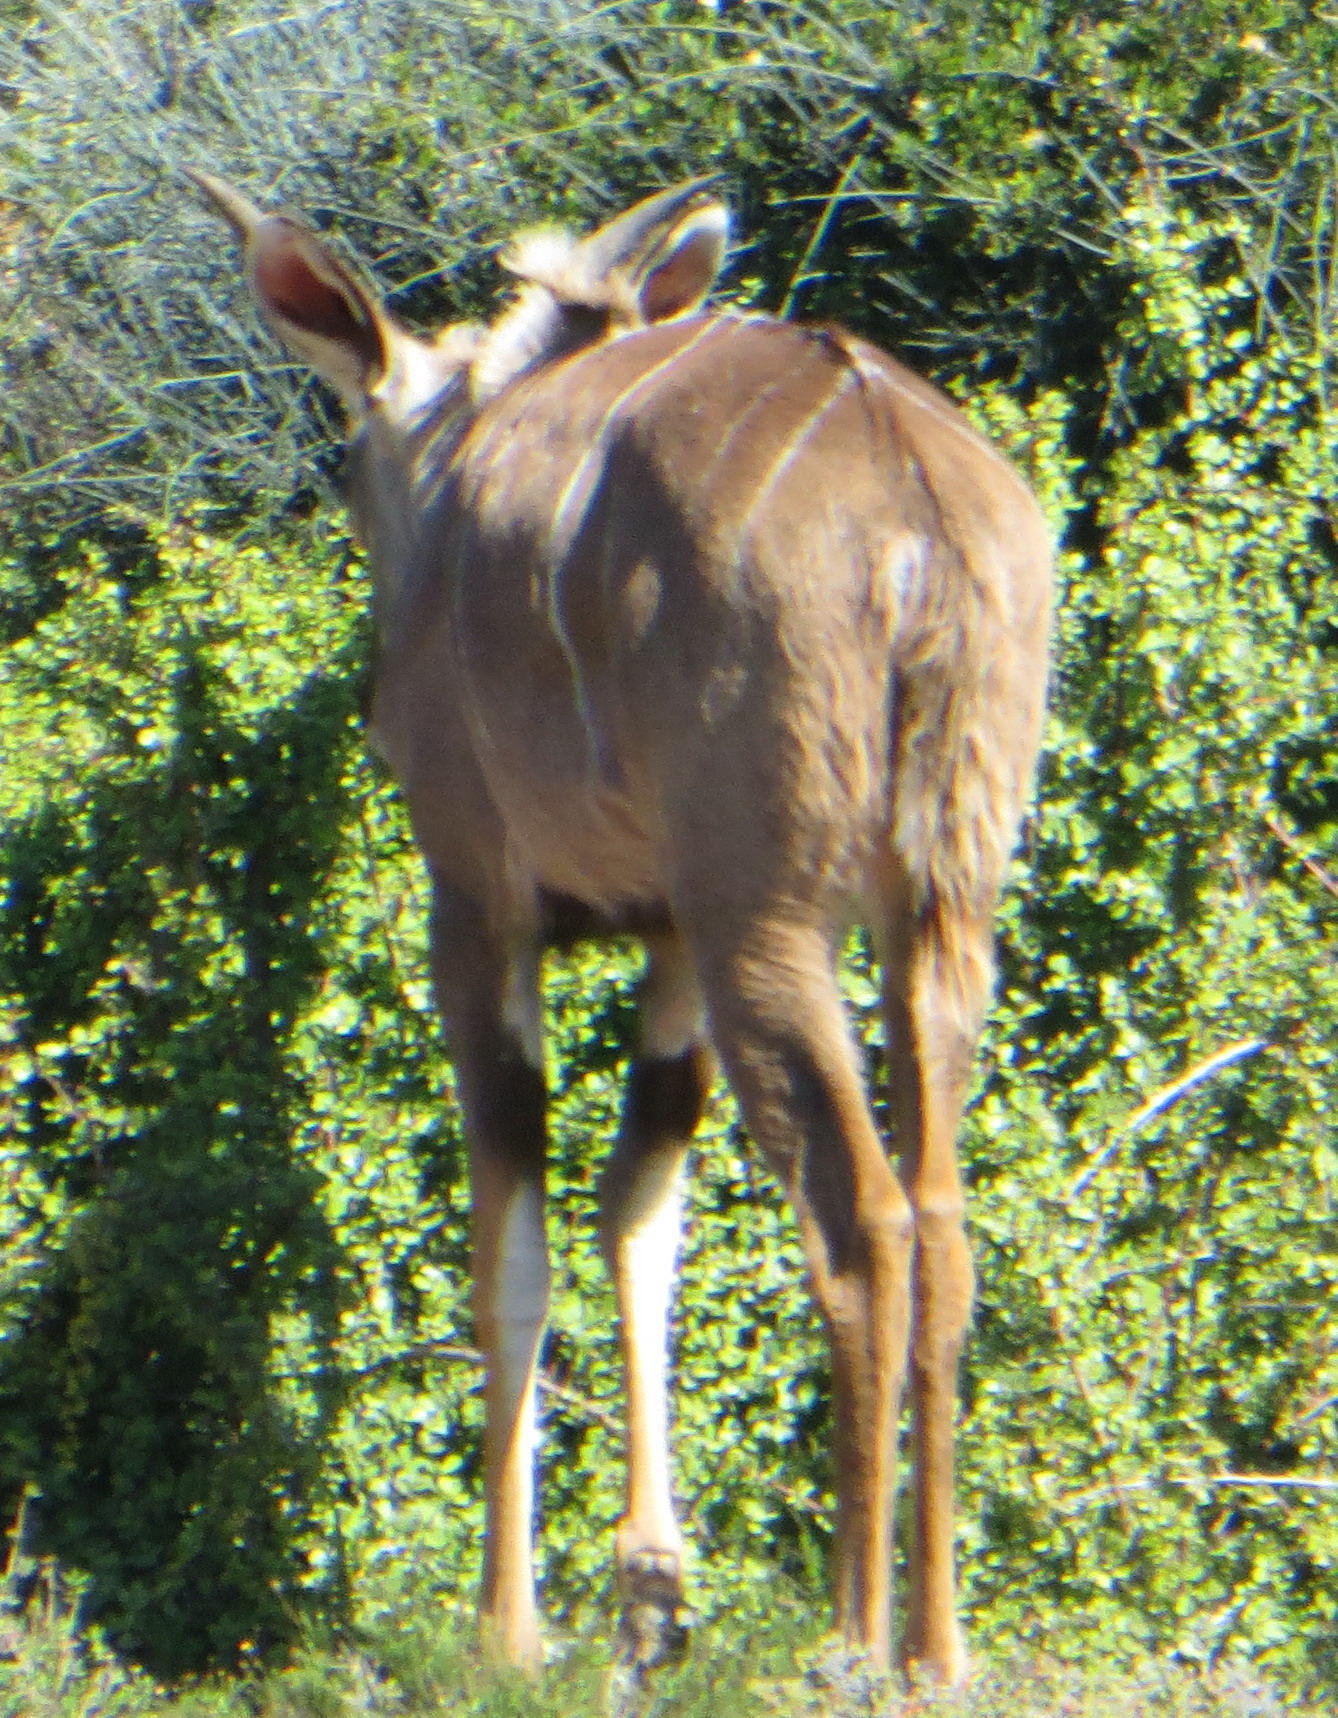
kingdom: Animalia
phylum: Chordata
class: Mammalia
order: Artiodactyla
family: Bovidae
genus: Tragelaphus
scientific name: Tragelaphus strepsiceros
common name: Greater kudu
